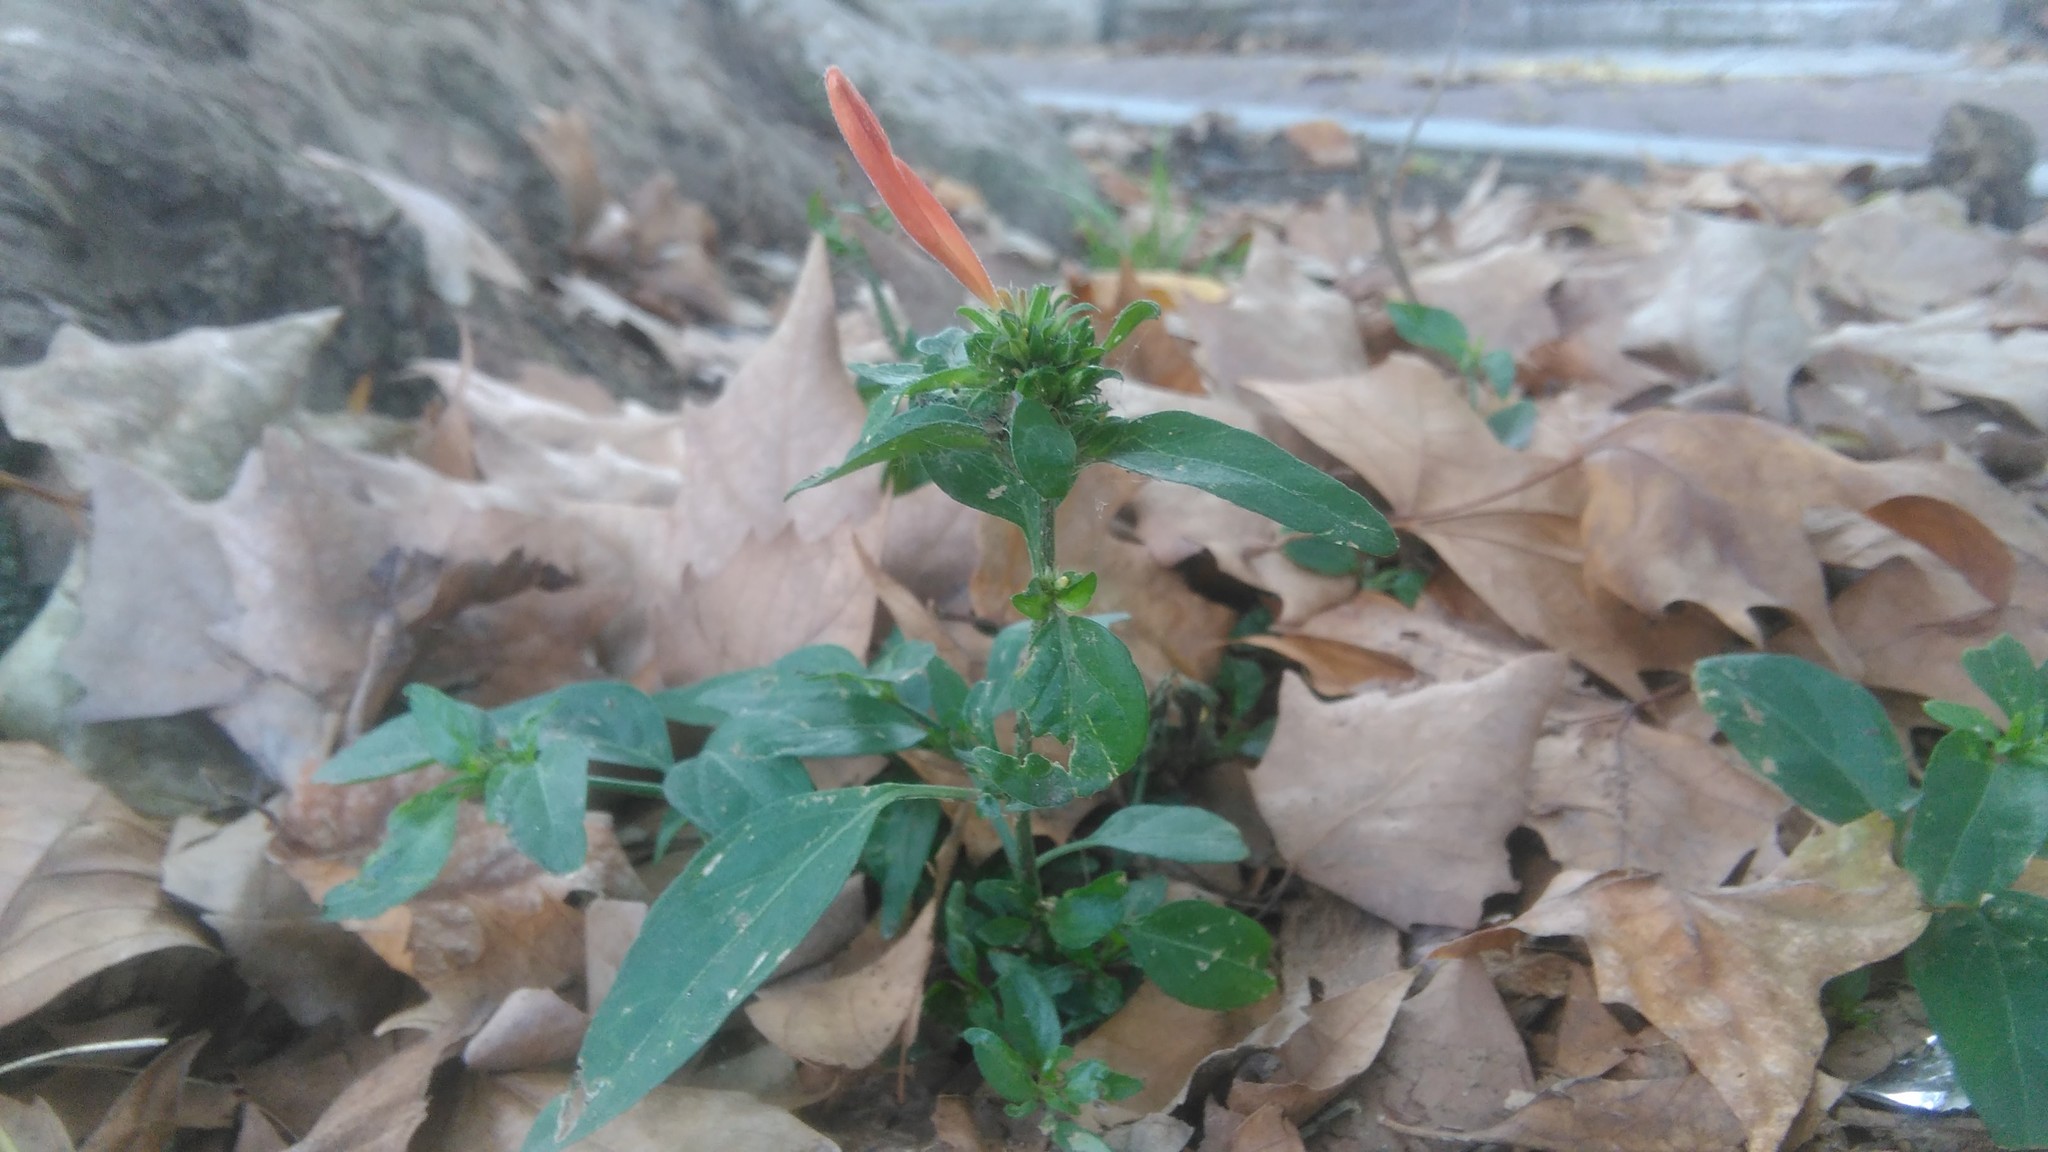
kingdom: Plantae
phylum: Tracheophyta
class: Magnoliopsida
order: Lamiales
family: Acanthaceae
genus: Dicliptera
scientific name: Dicliptera squarrosa
